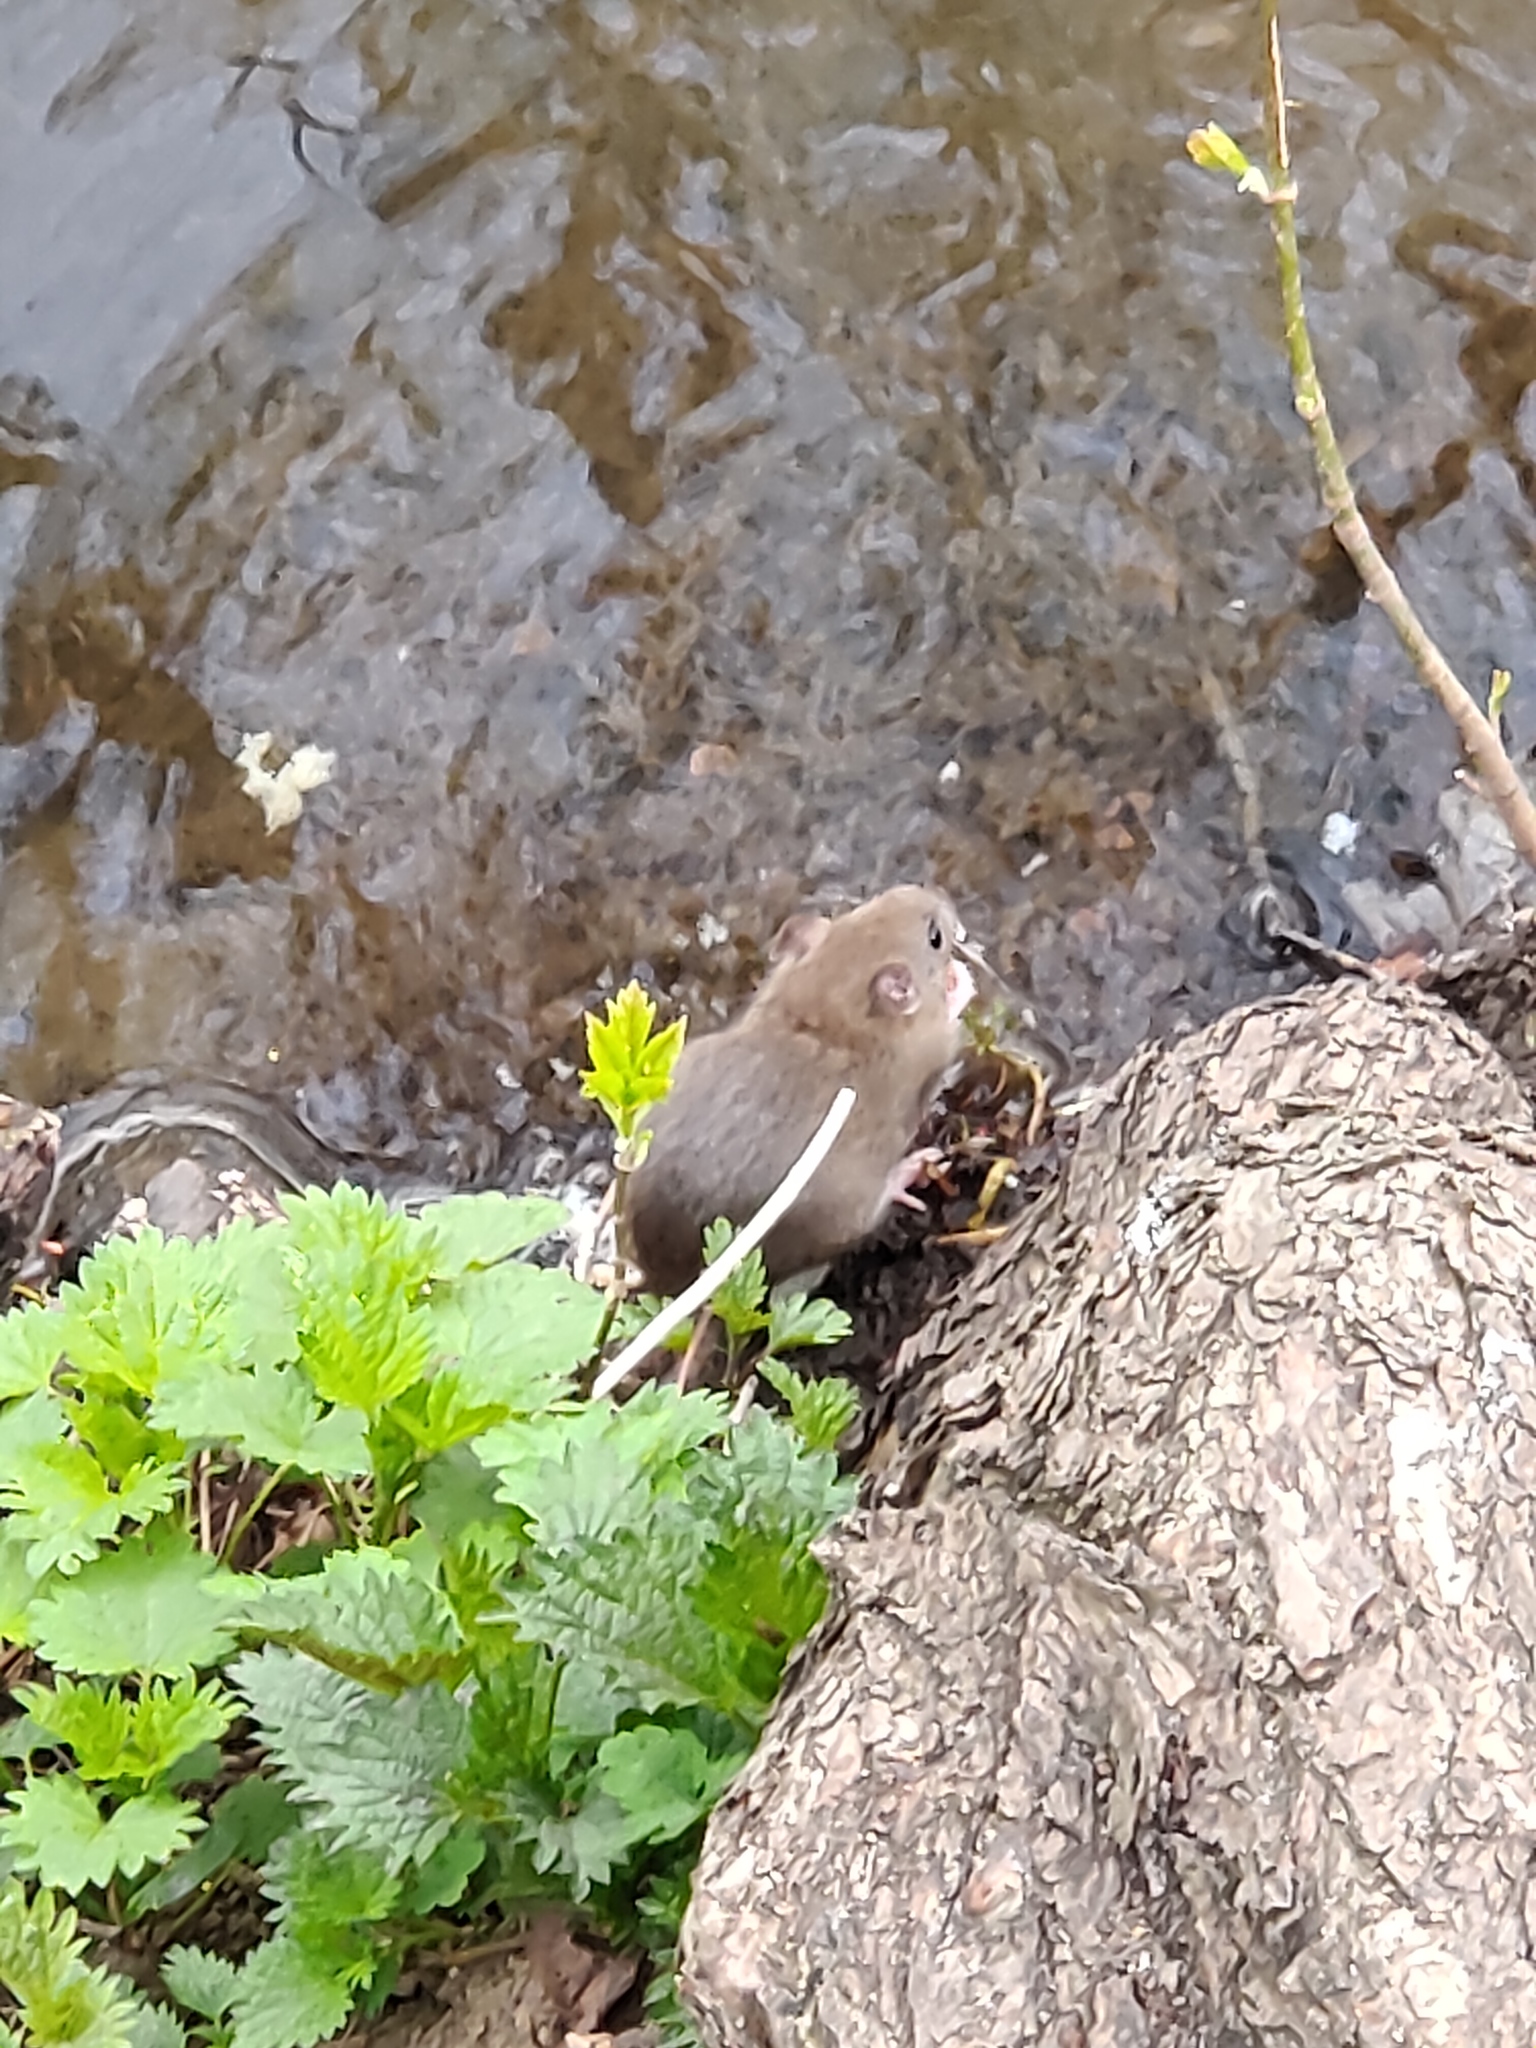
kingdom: Animalia
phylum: Chordata
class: Mammalia
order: Rodentia
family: Muridae
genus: Rattus
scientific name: Rattus norvegicus
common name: Brown rat
